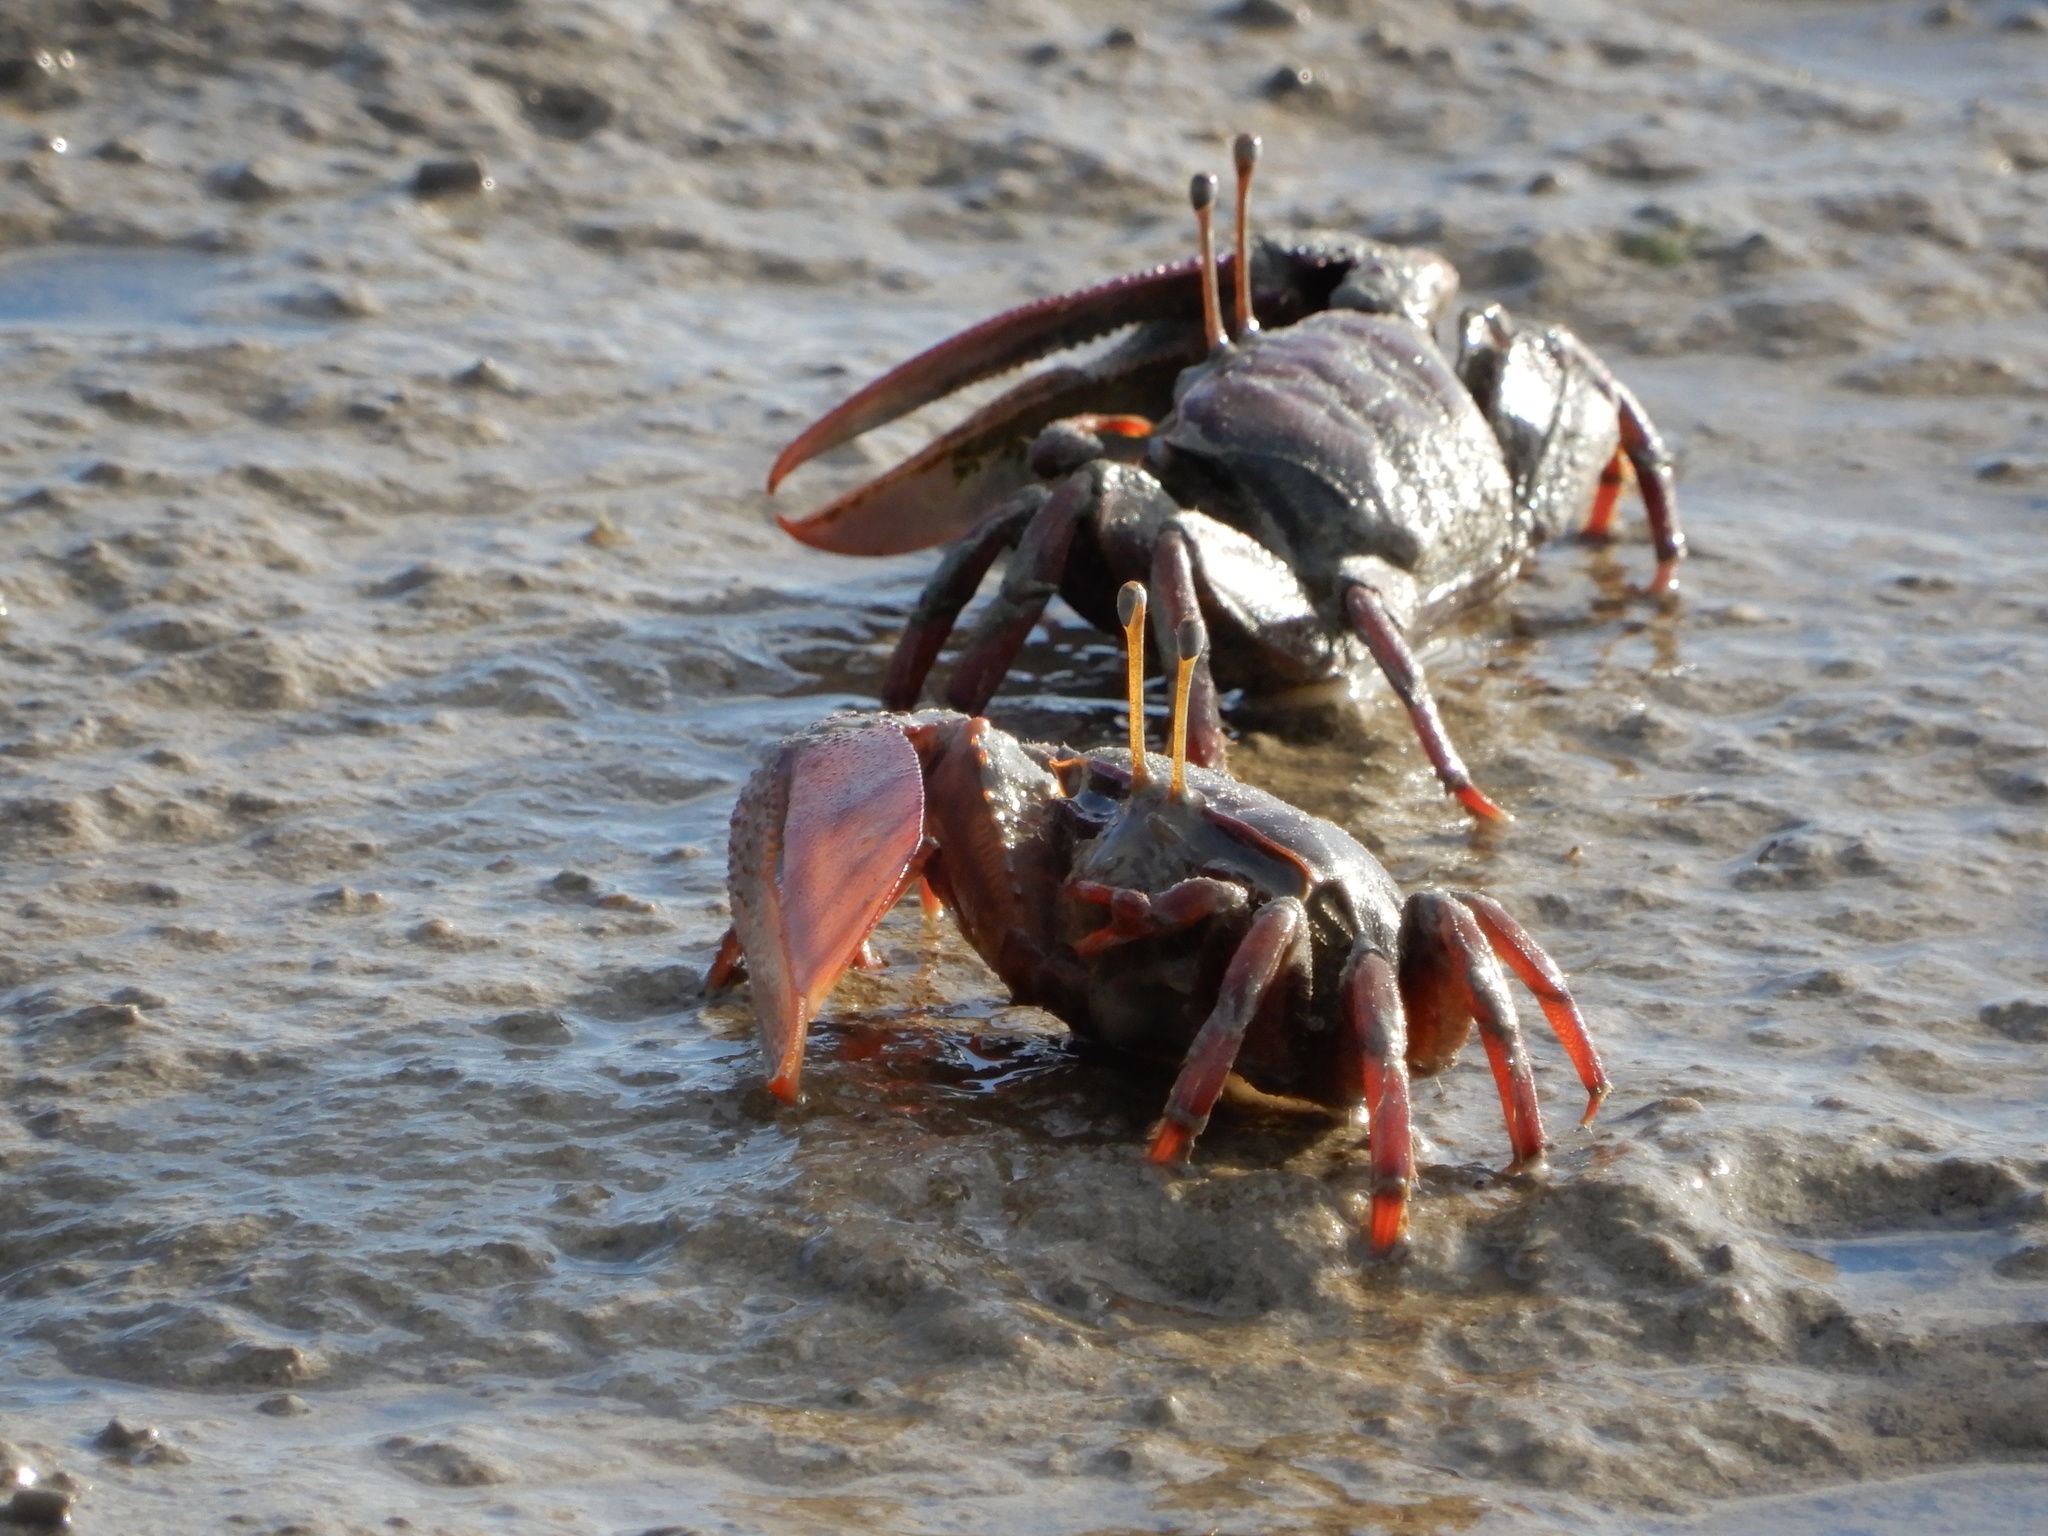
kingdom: Animalia
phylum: Arthropoda
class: Malacostraca
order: Decapoda
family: Ocypodidae
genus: Uca
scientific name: Uca maracoani
